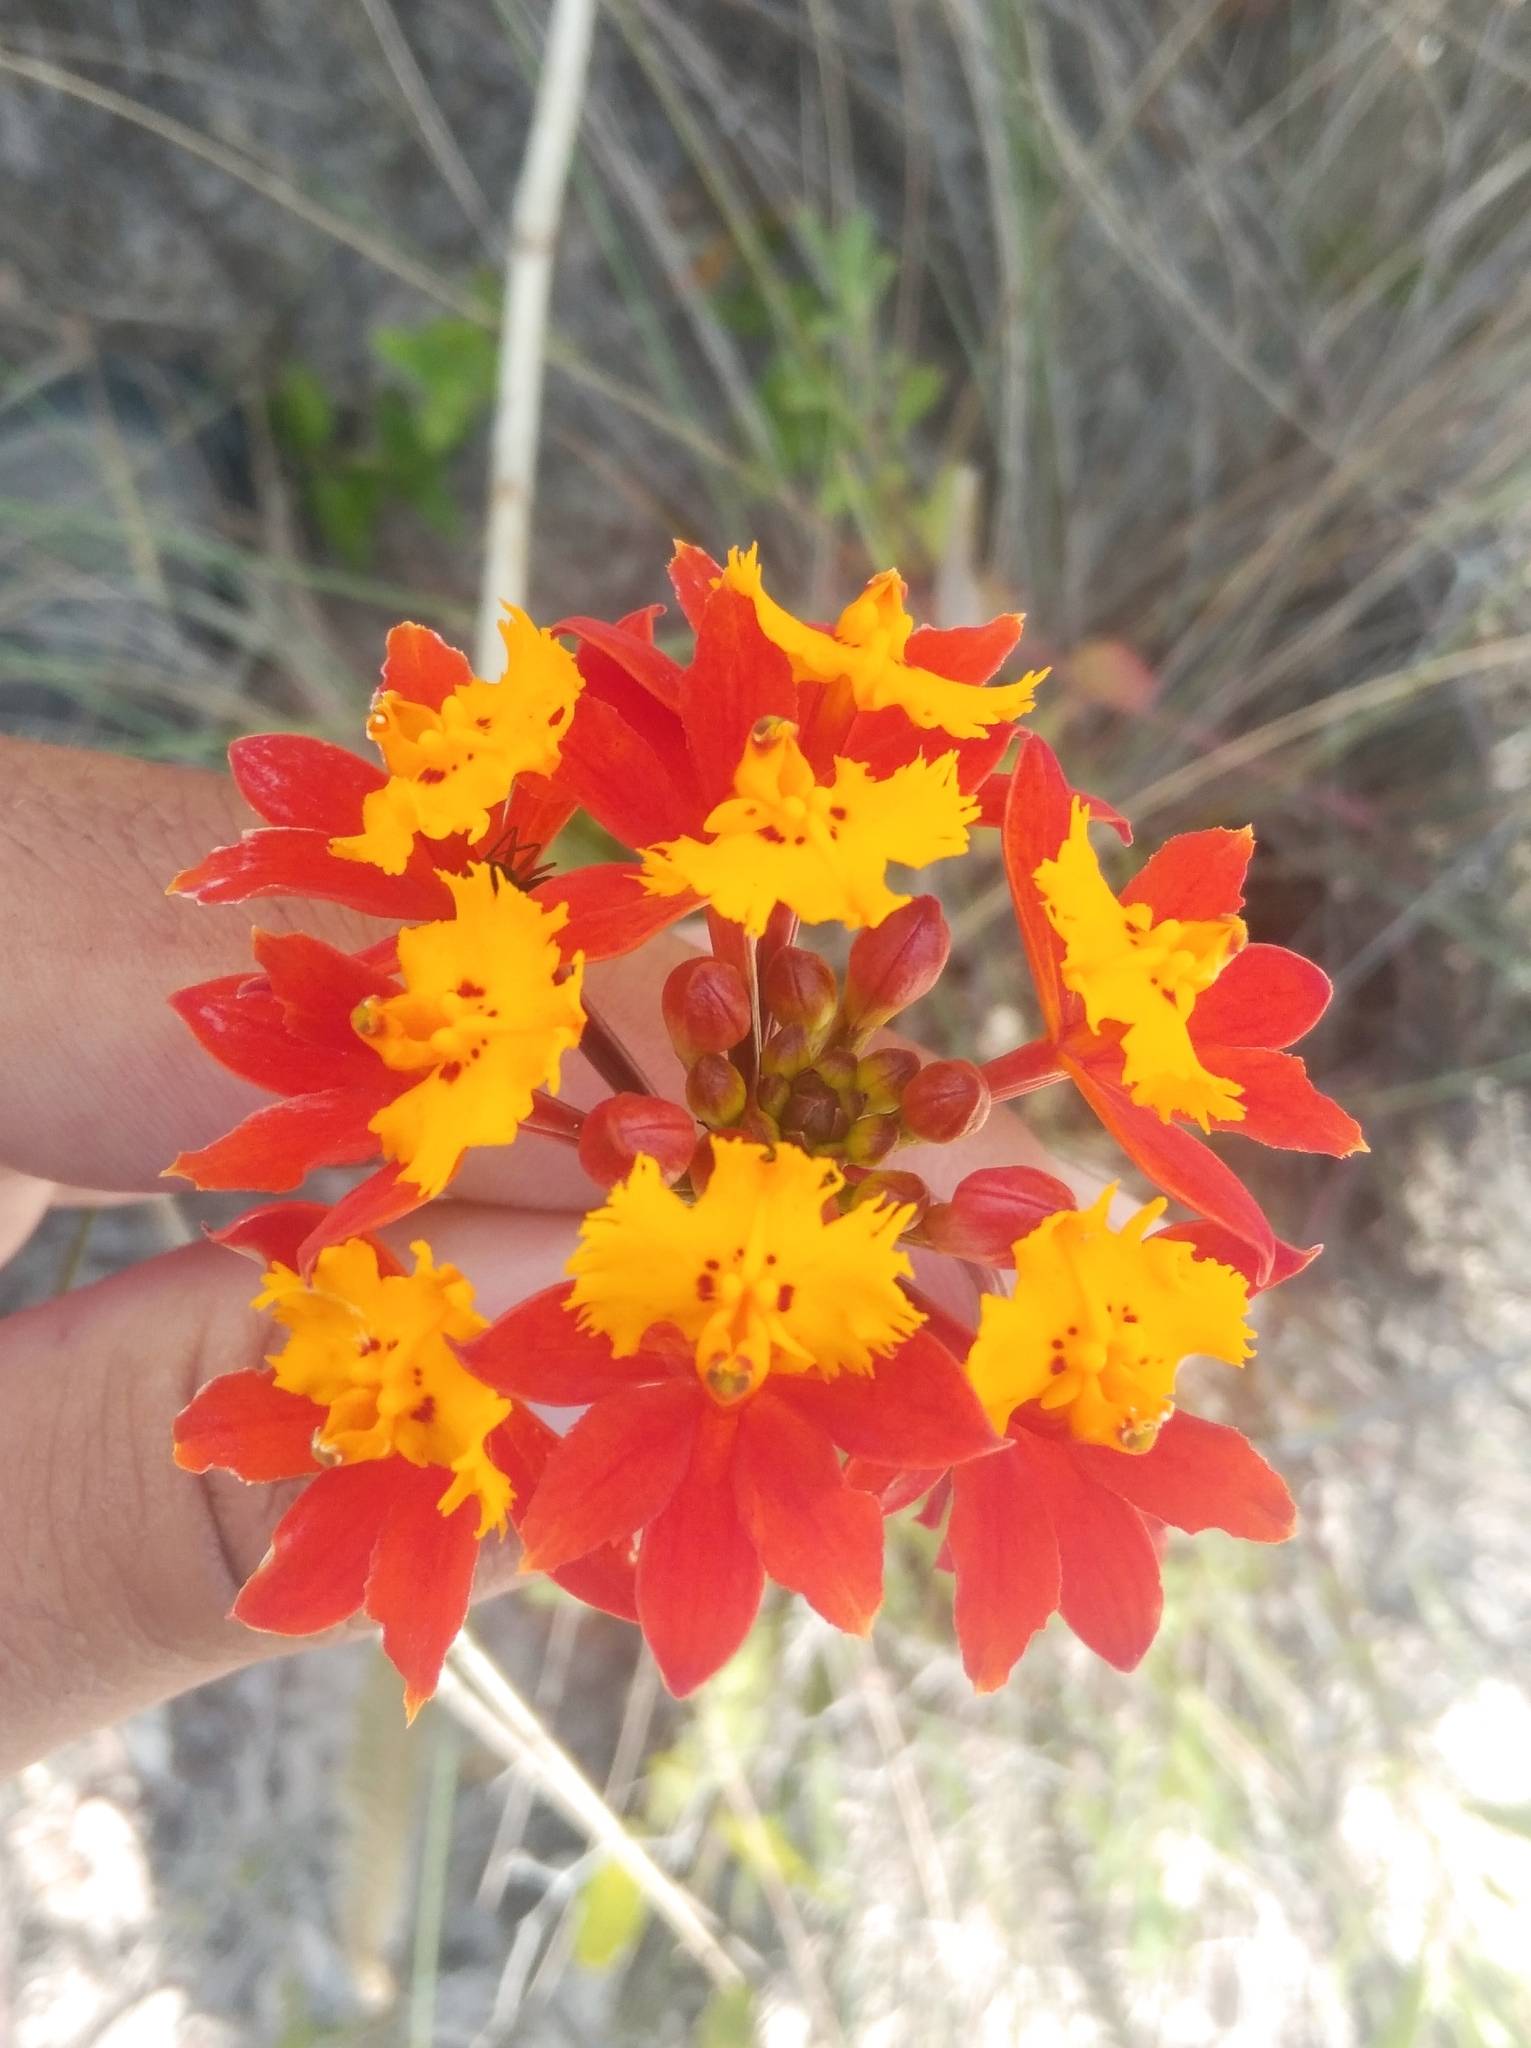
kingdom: Plantae
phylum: Tracheophyta
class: Liliopsida
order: Asparagales
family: Orchidaceae
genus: Epidendrum
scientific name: Epidendrum fulgens
